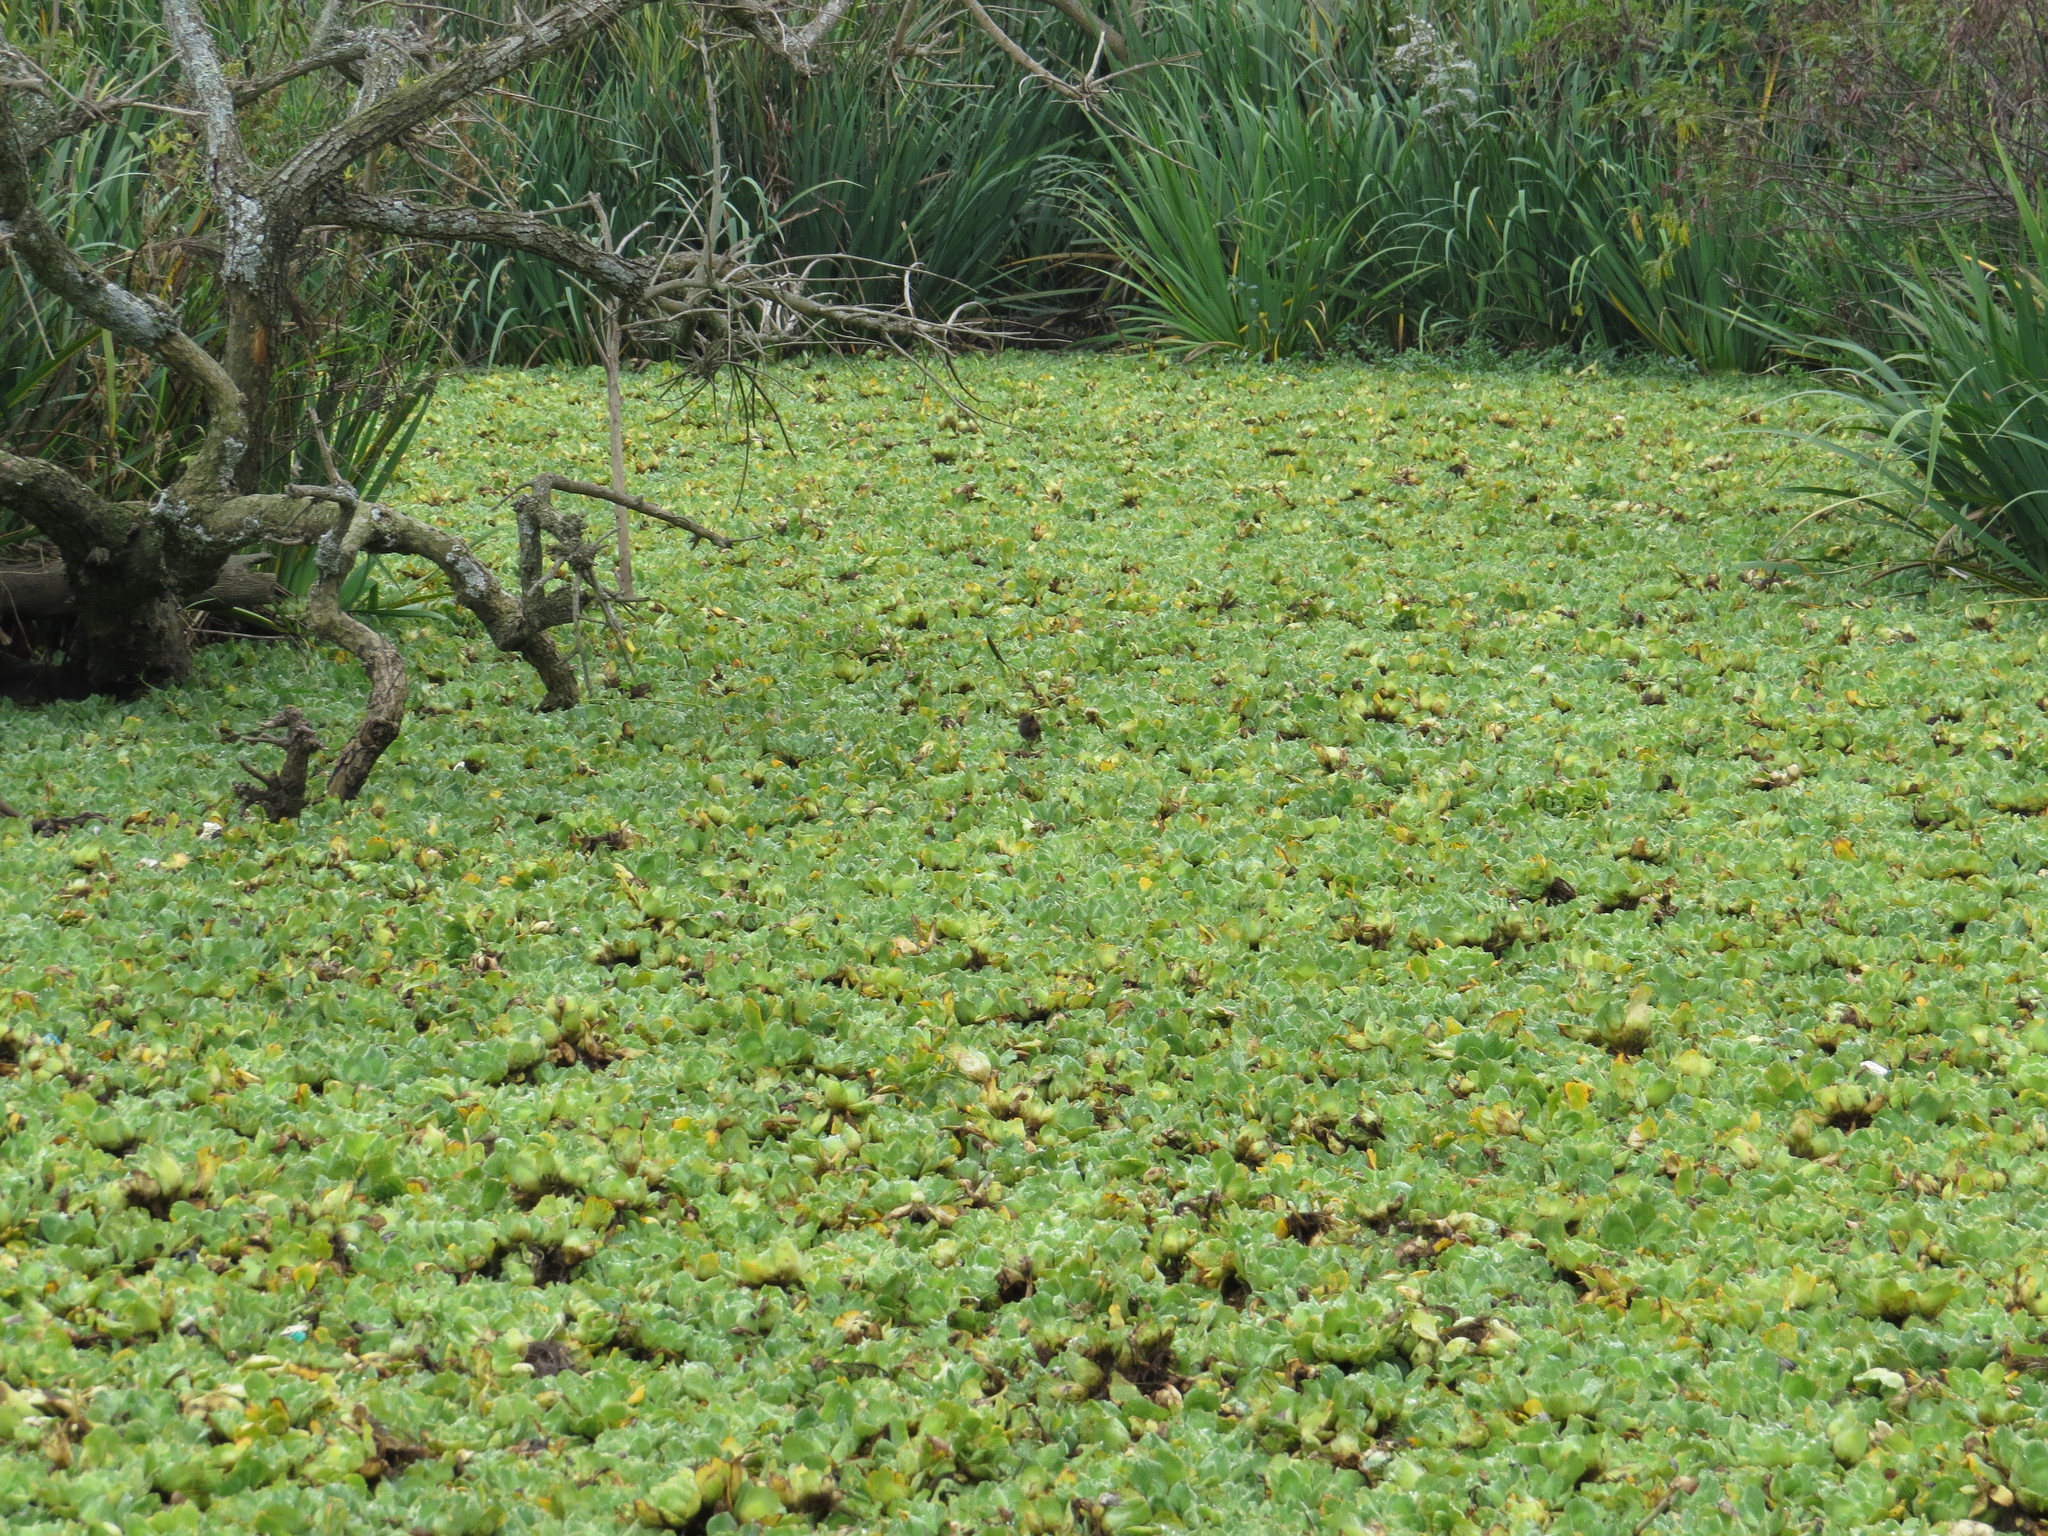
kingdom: Plantae
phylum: Tracheophyta
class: Liliopsida
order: Alismatales
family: Araceae
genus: Pistia
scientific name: Pistia stratiotes
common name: Water lettuce
